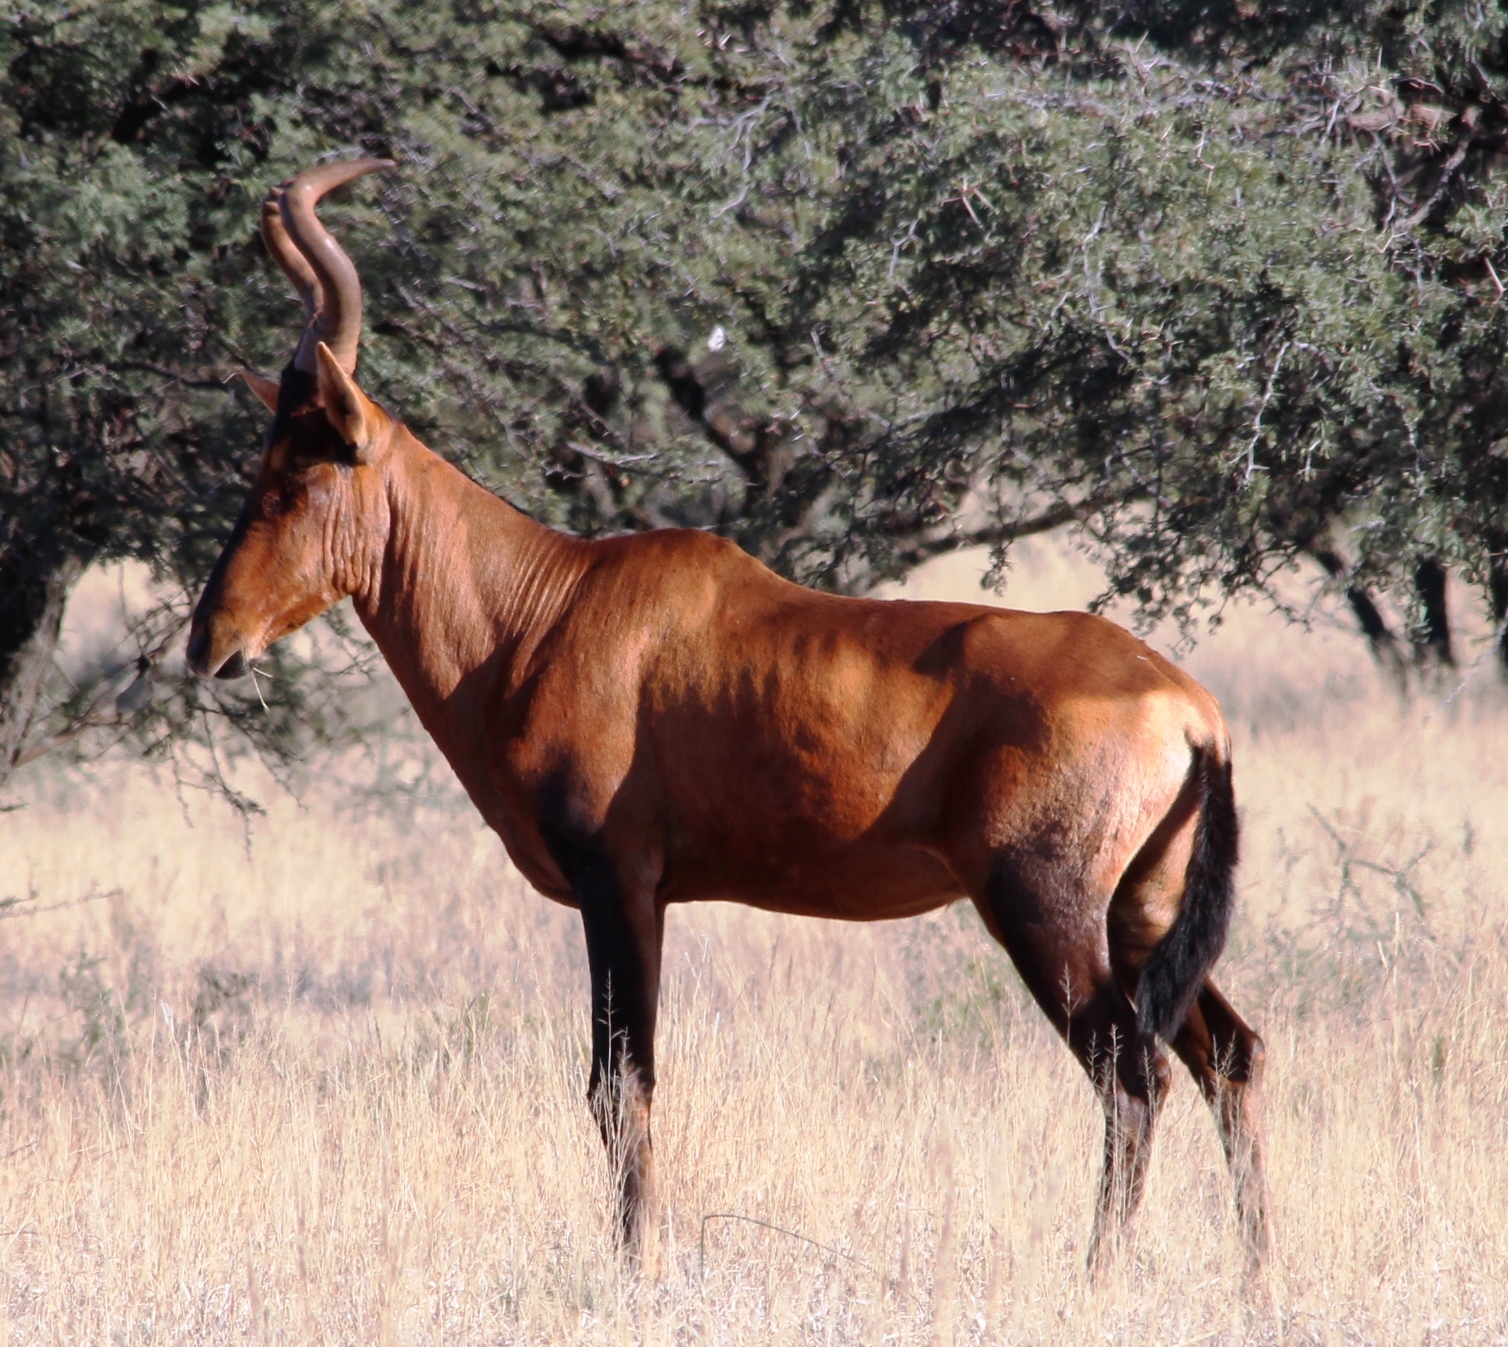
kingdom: Animalia
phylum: Chordata
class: Mammalia
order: Artiodactyla
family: Bovidae
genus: Alcelaphus
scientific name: Alcelaphus caama
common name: Red hartebeest
